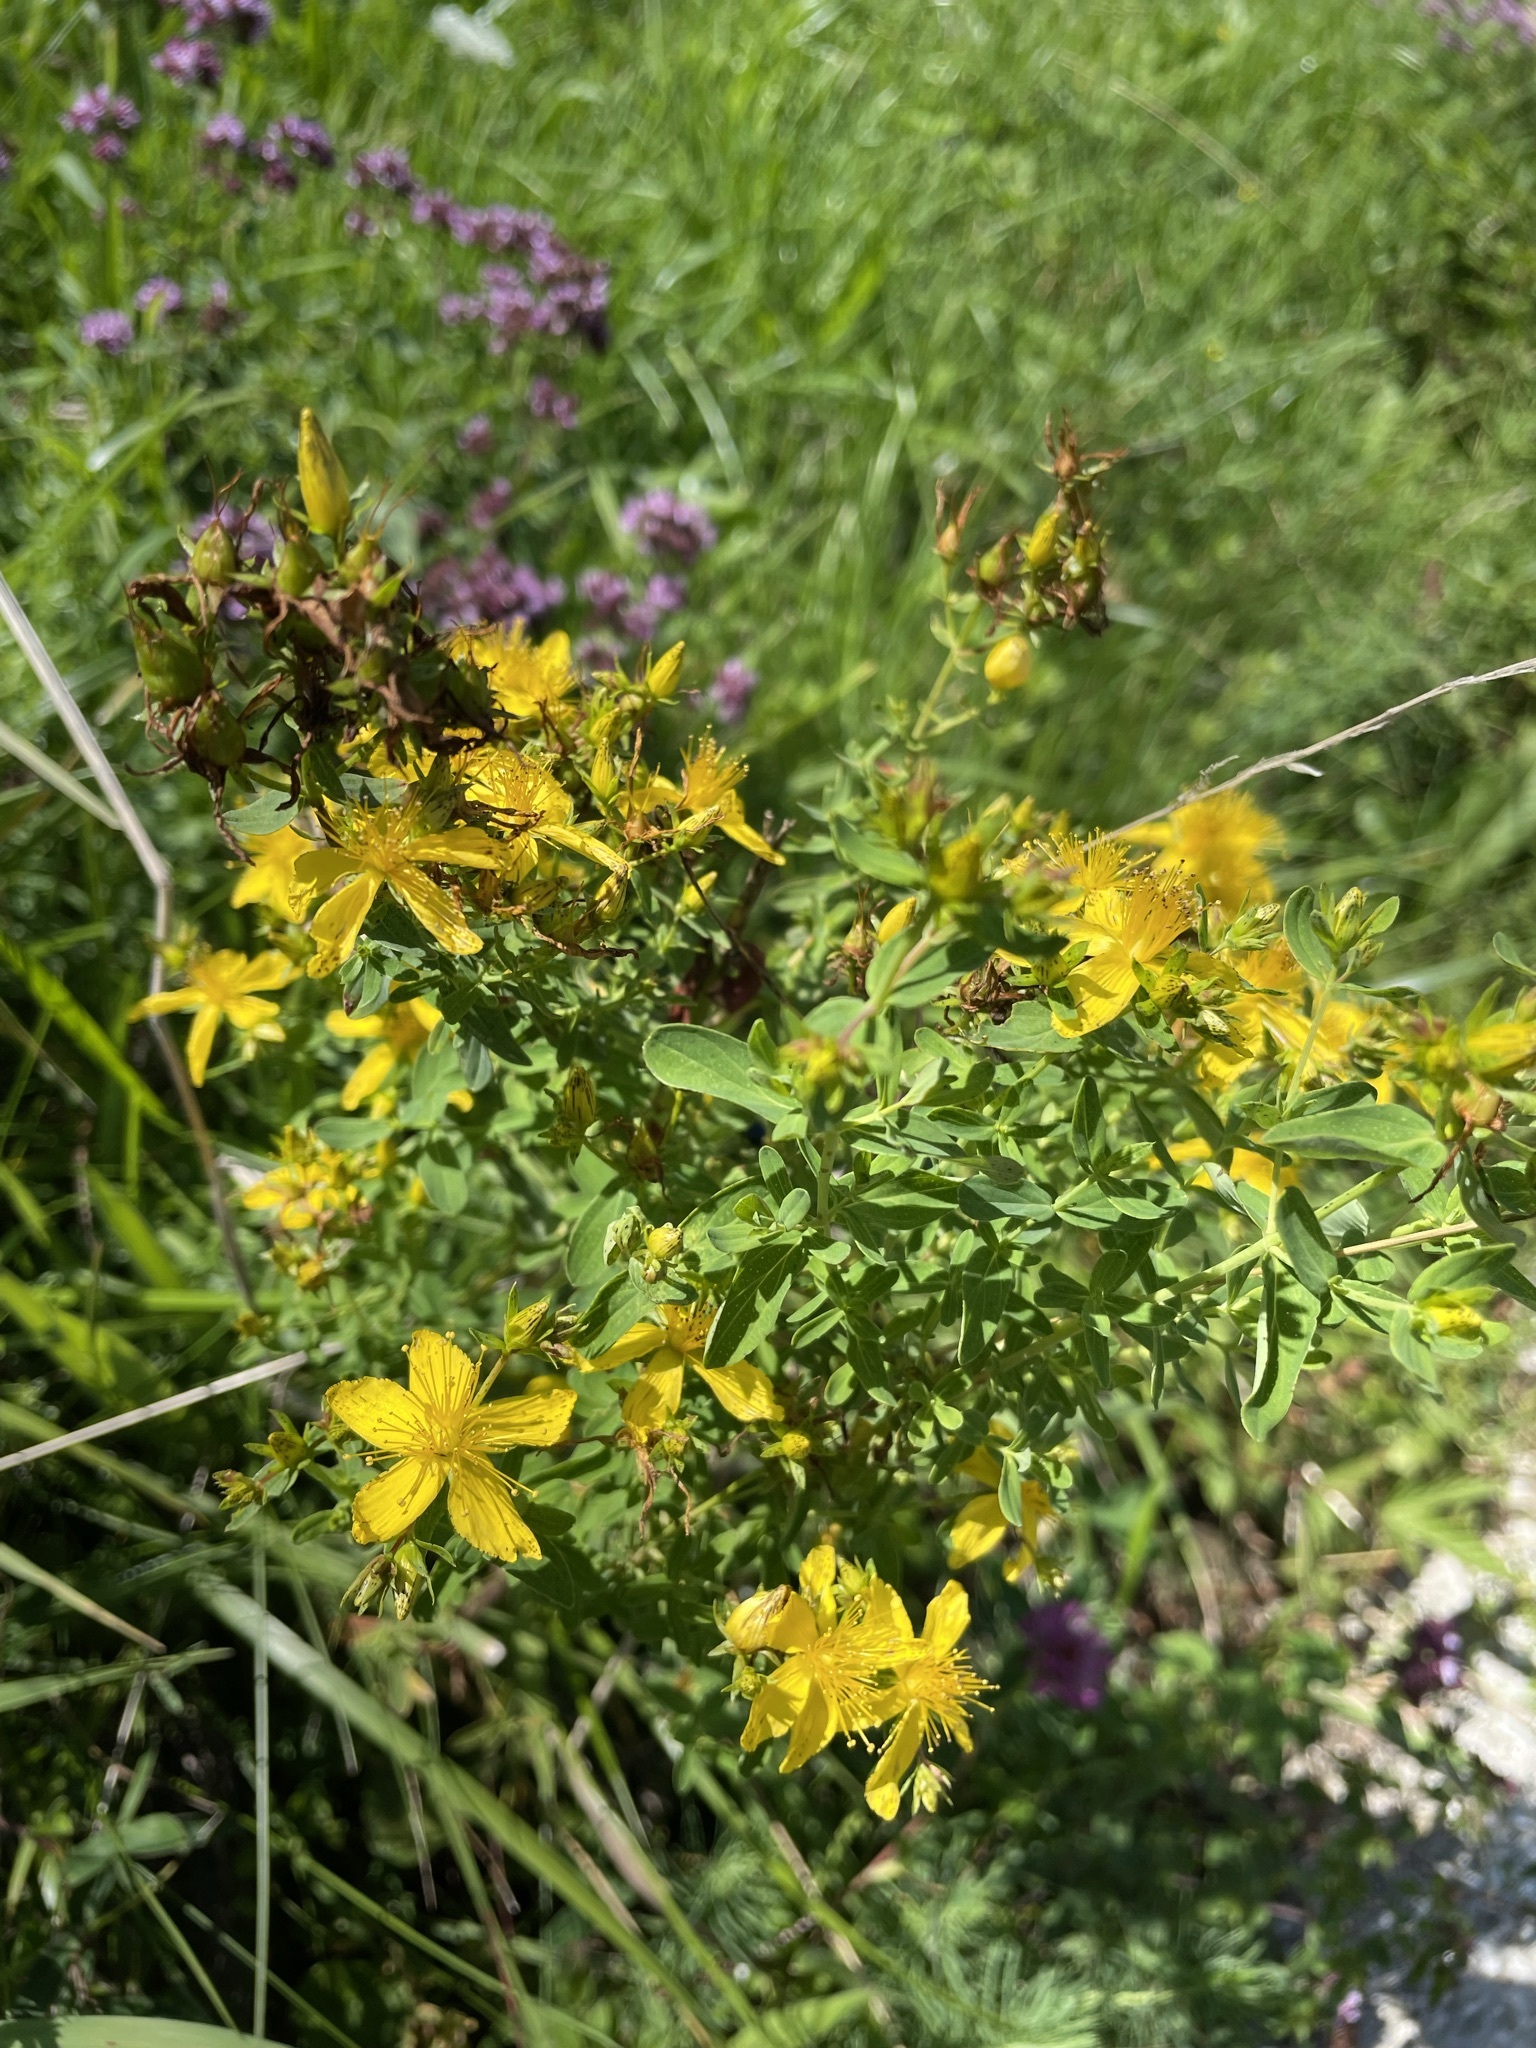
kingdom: Plantae
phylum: Tracheophyta
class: Magnoliopsida
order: Malpighiales
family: Hypericaceae
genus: Hypericum
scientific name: Hypericum desetangsii
